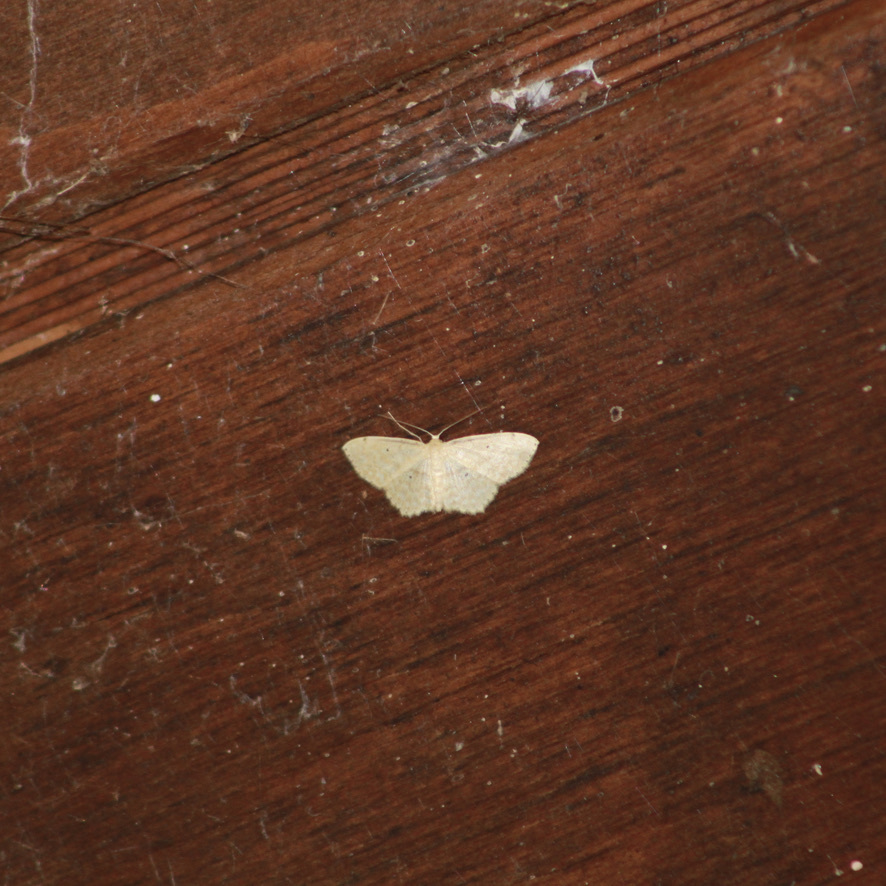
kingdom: Animalia
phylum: Arthropoda
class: Insecta
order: Lepidoptera
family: Geometridae
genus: Scopula
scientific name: Scopula apparitaria
